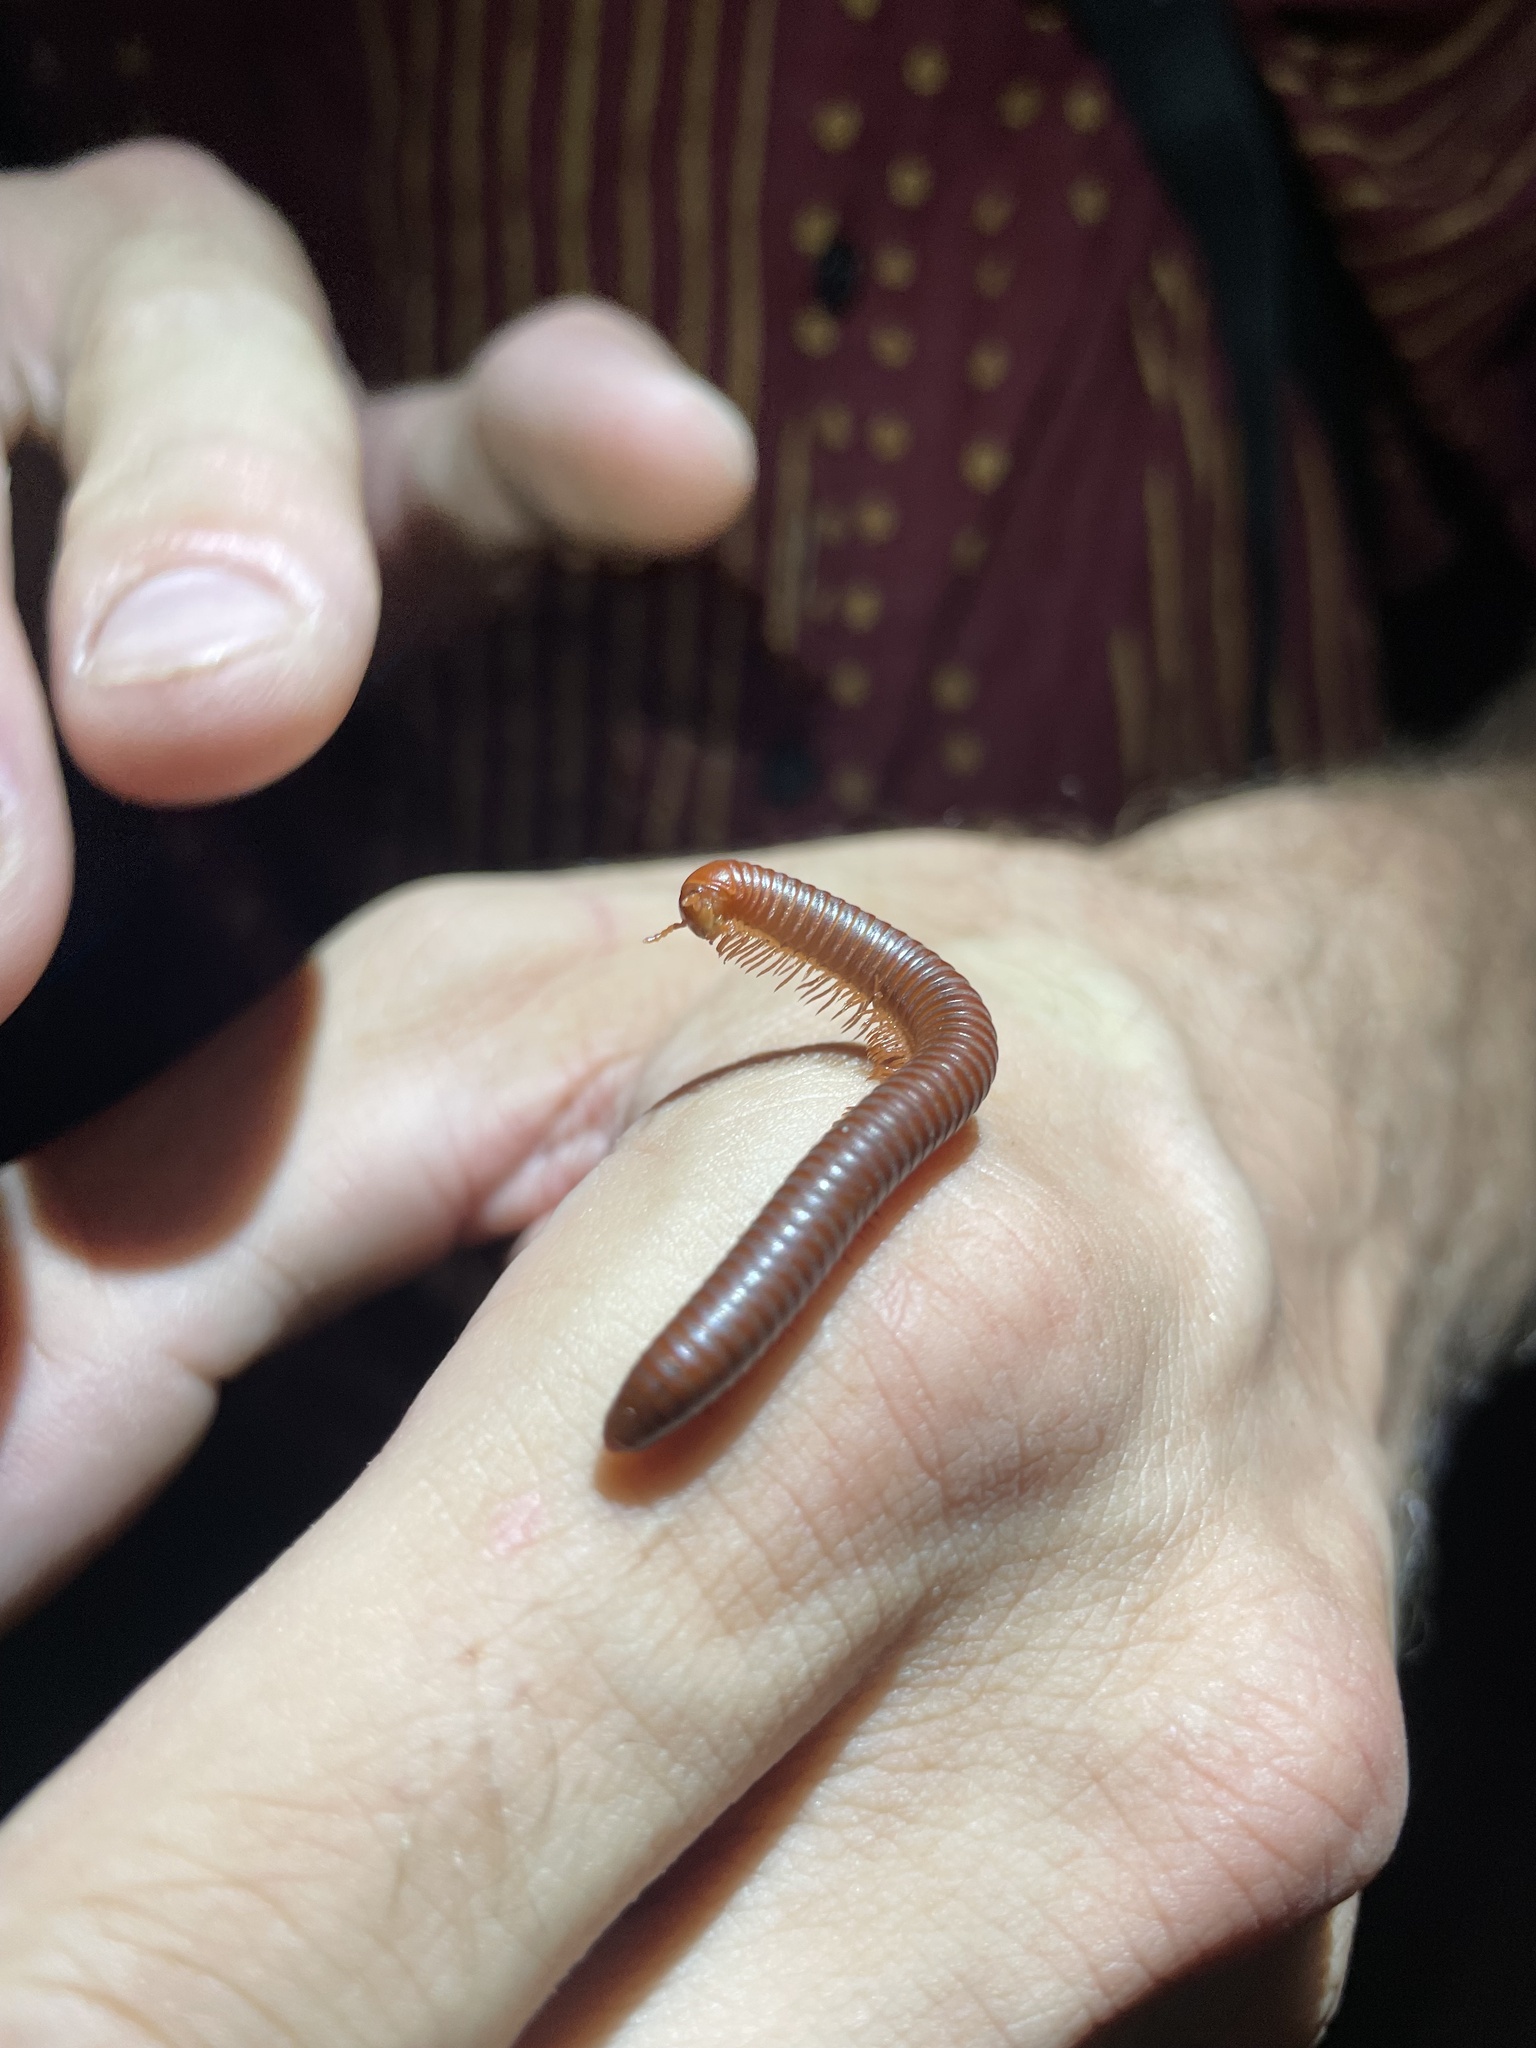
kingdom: Animalia
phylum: Arthropoda
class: Diplopoda
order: Spirobolida
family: Pachybolidae
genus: Trigoniulus
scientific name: Trigoniulus corallinus
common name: Millipede
